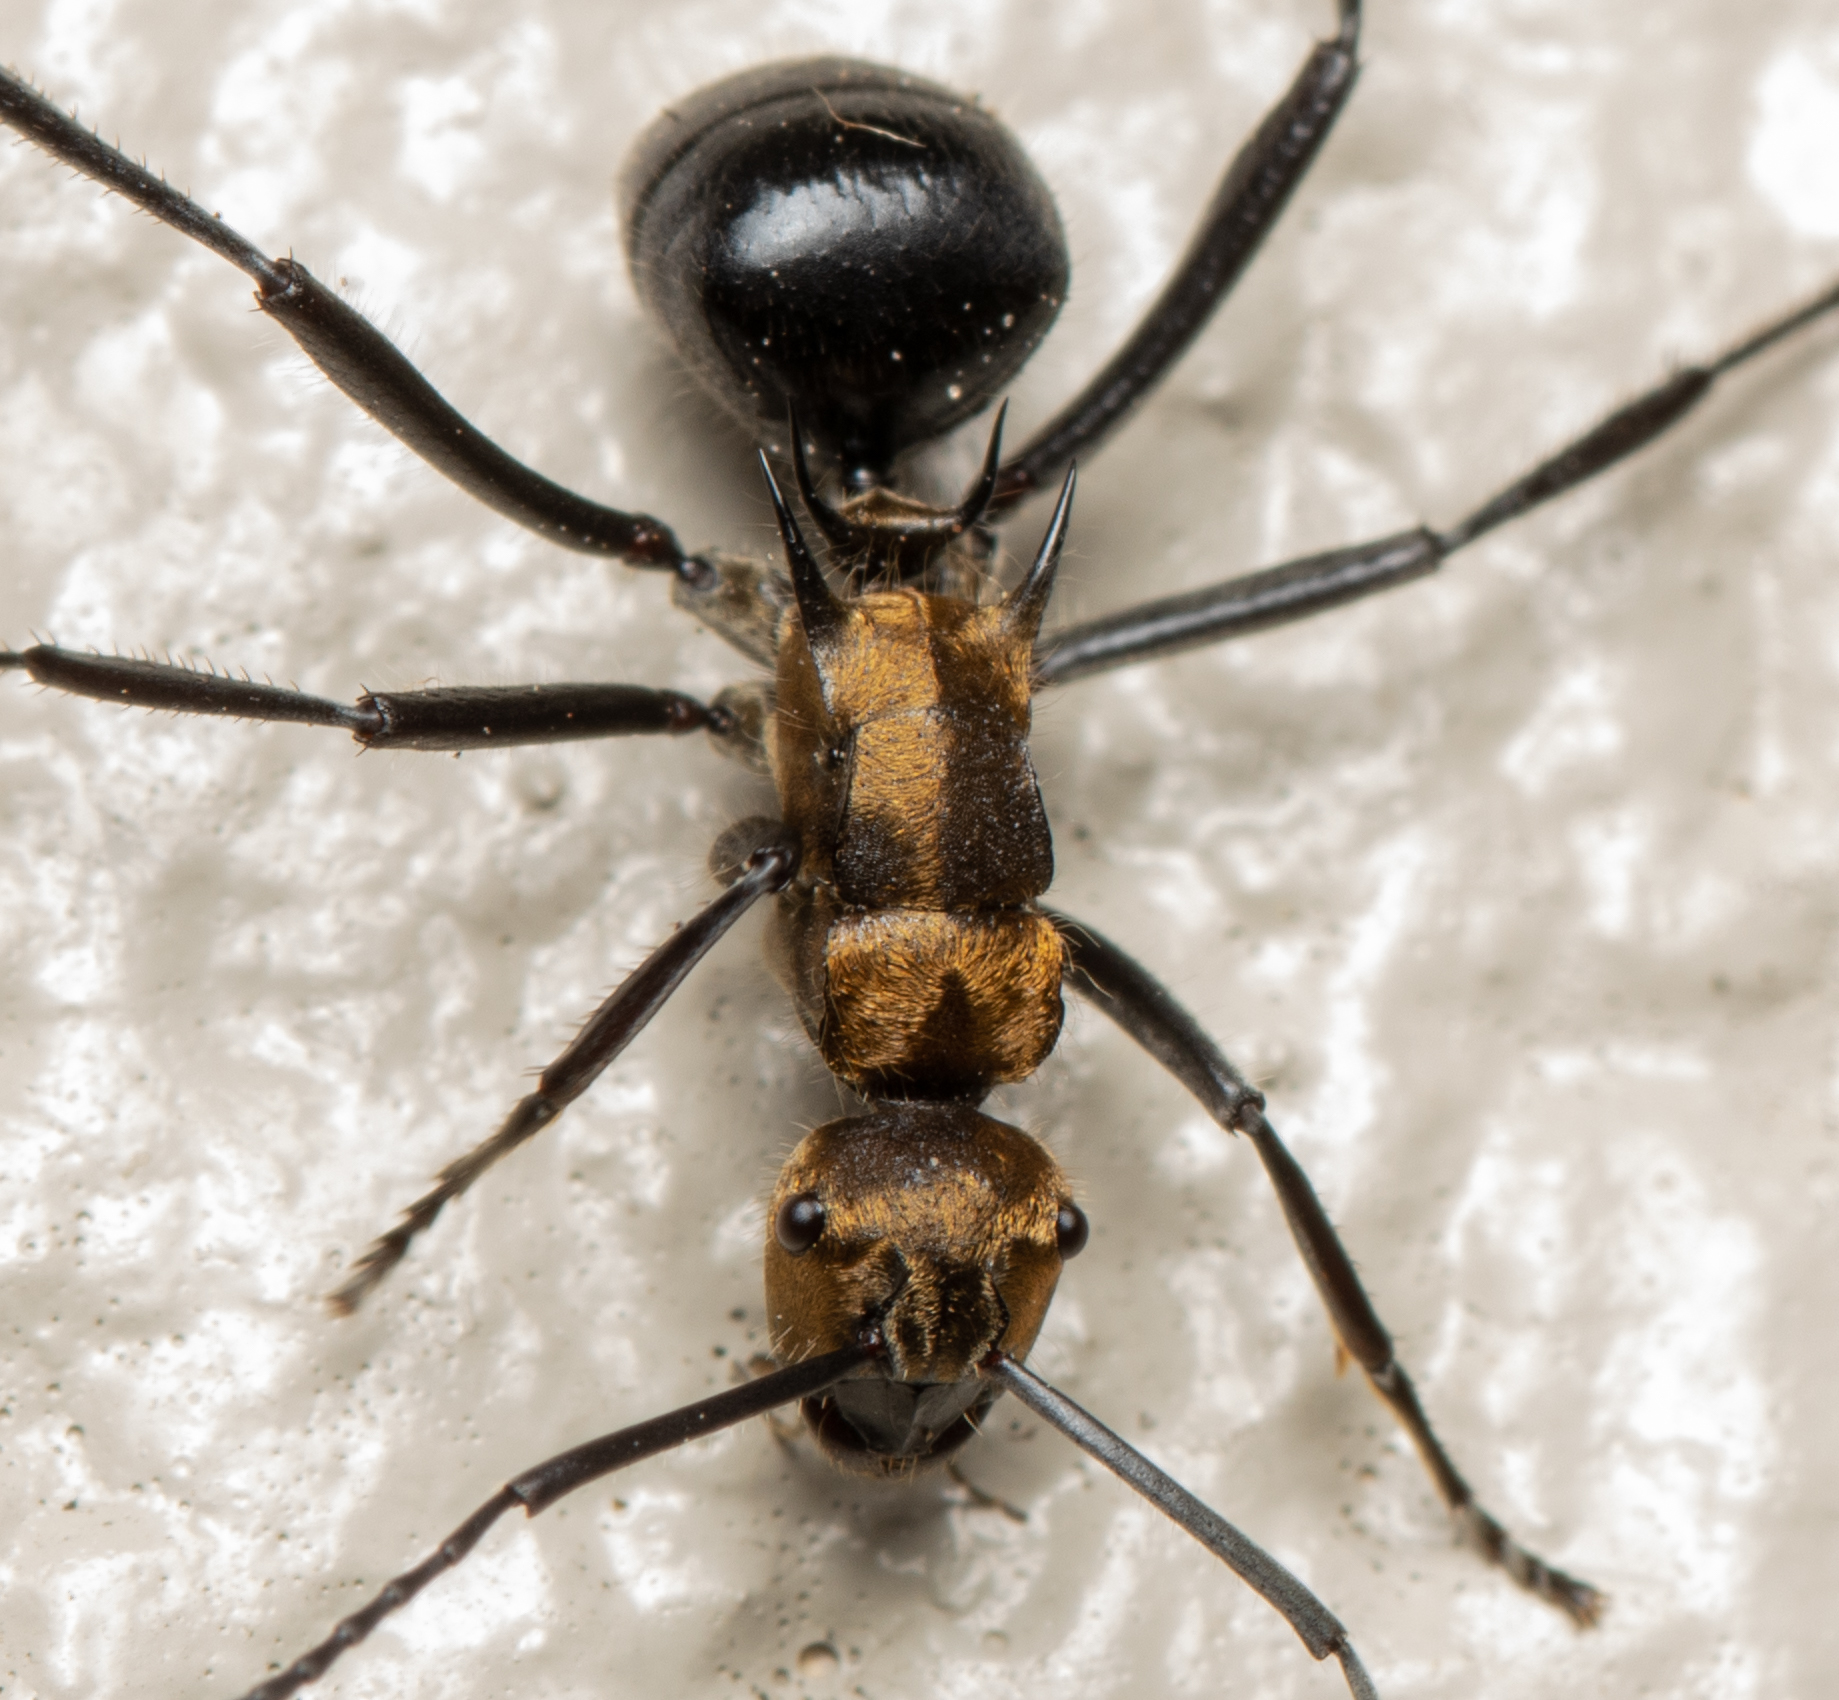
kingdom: Animalia
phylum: Arthropoda
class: Insecta
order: Hymenoptera
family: Formicidae
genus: Polyrhachis
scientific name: Polyrhachis semiaurata
